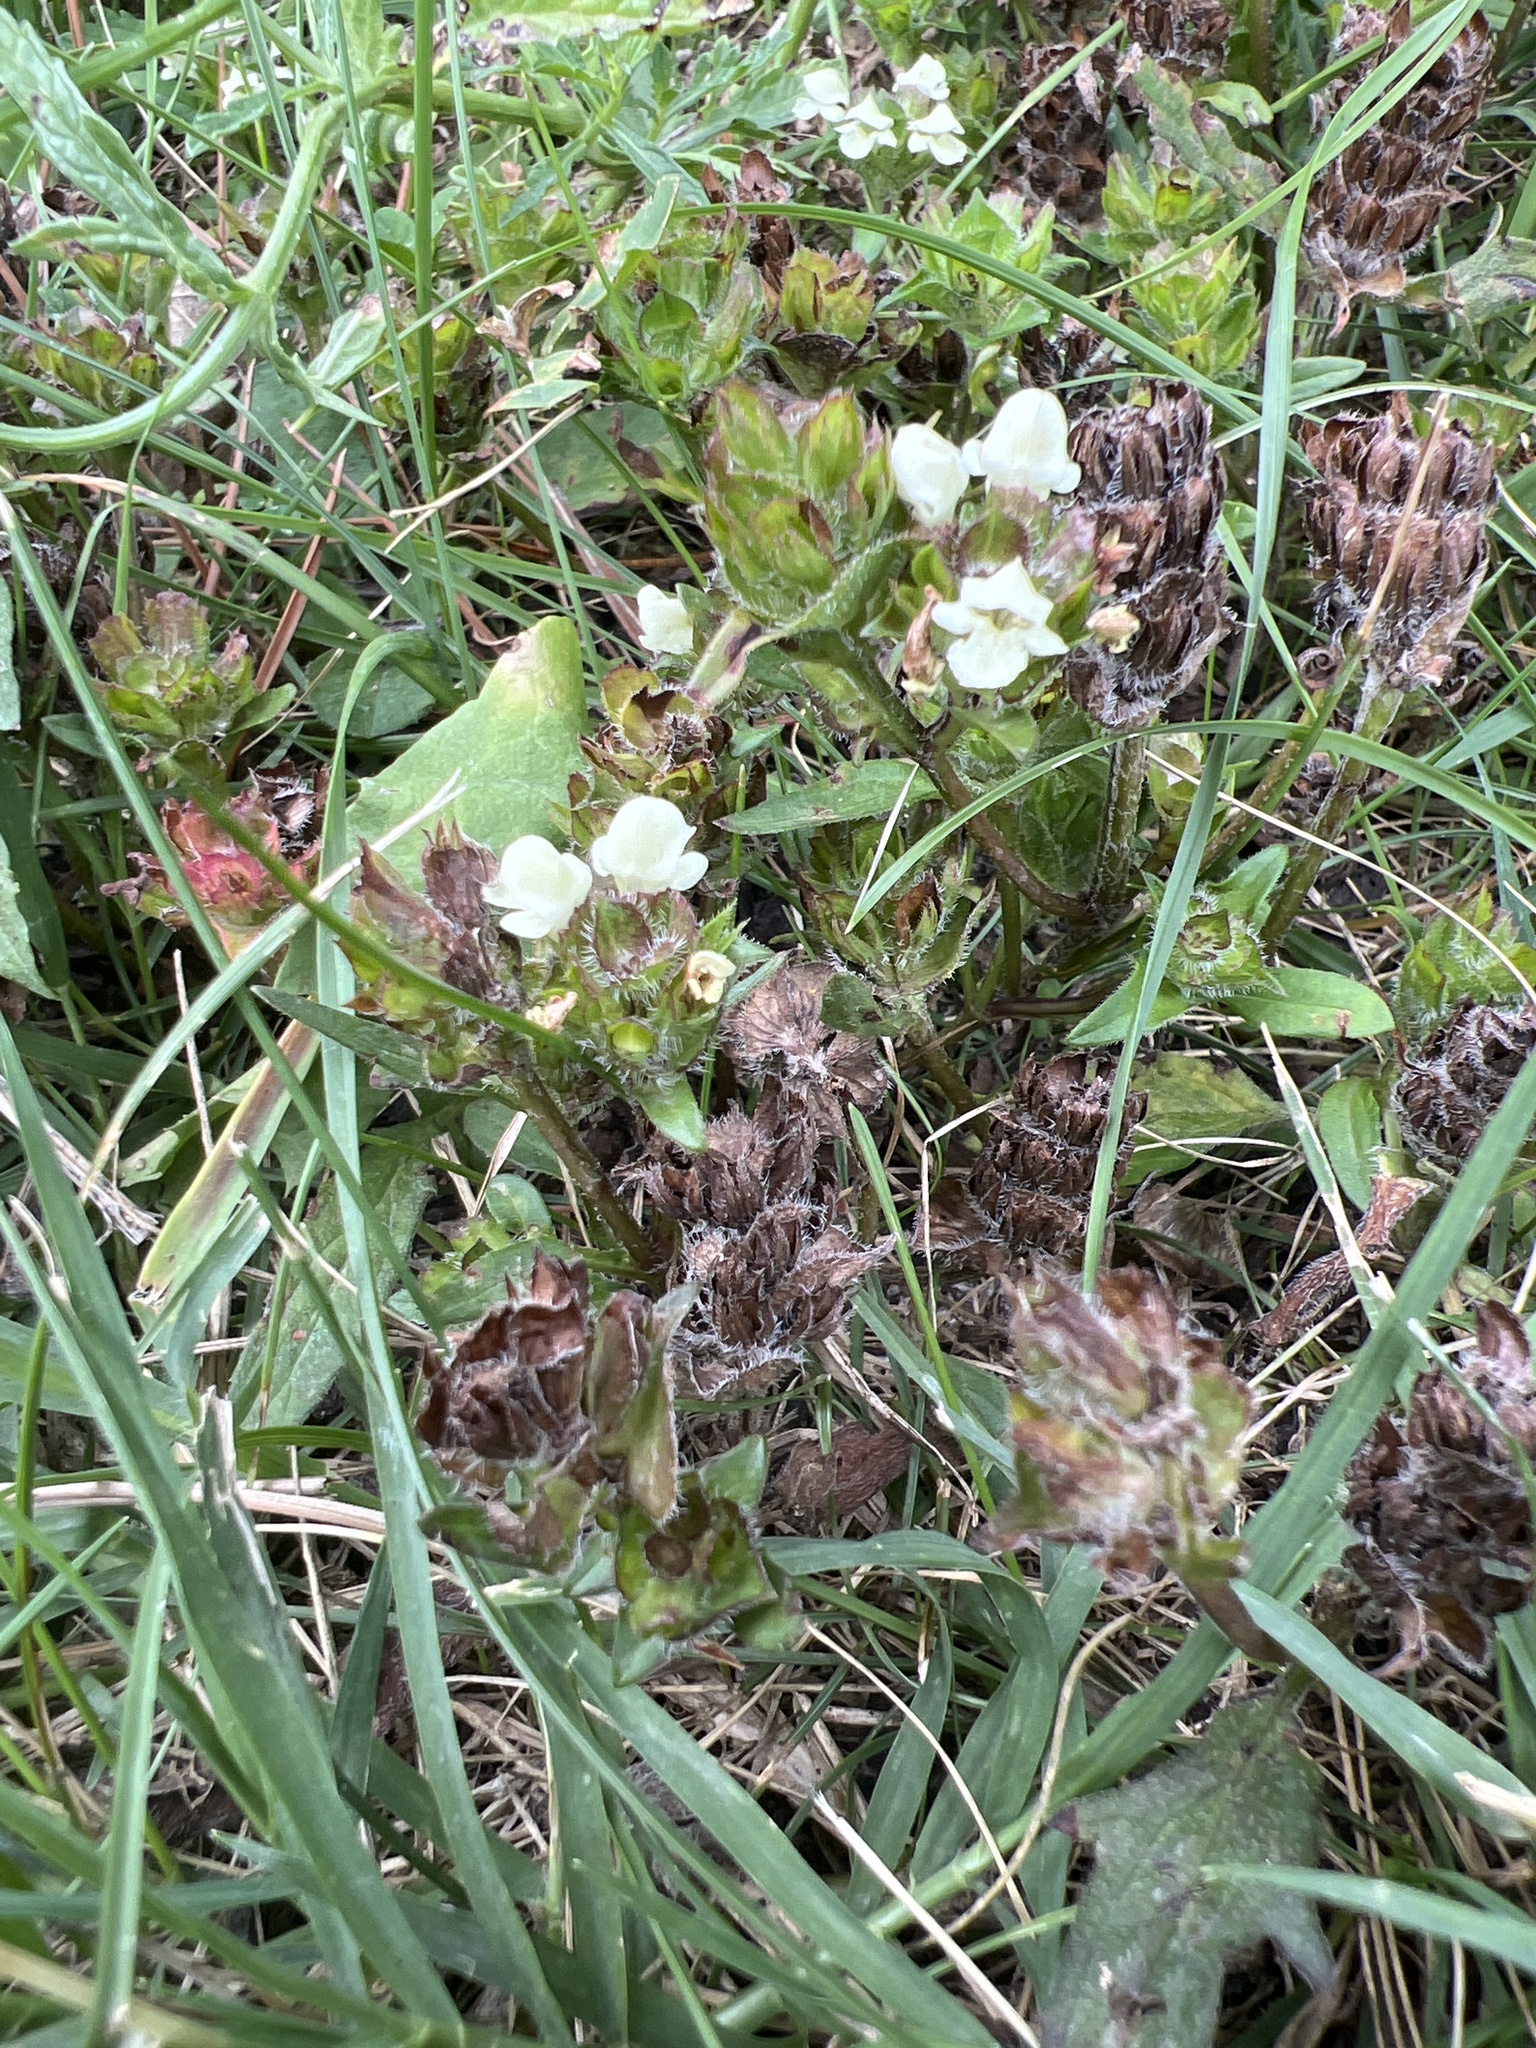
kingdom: Plantae
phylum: Tracheophyta
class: Magnoliopsida
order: Lamiales
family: Lamiaceae
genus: Prunella
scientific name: Prunella laciniata
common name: Cut-leaved selfheal
